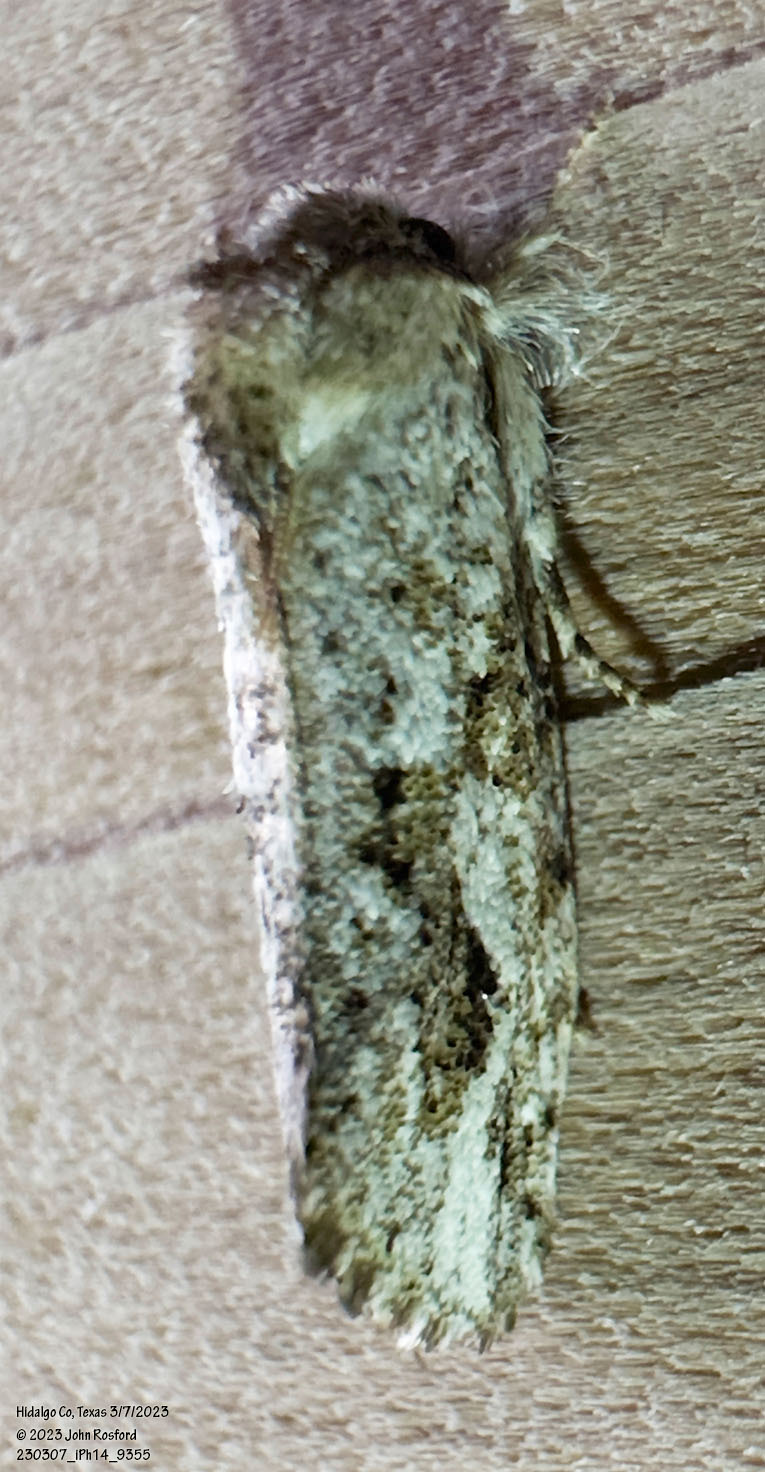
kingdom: Animalia
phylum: Arthropoda
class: Insecta
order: Lepidoptera
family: Tineidae
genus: Acrolophus
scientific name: Acrolophus griseus
